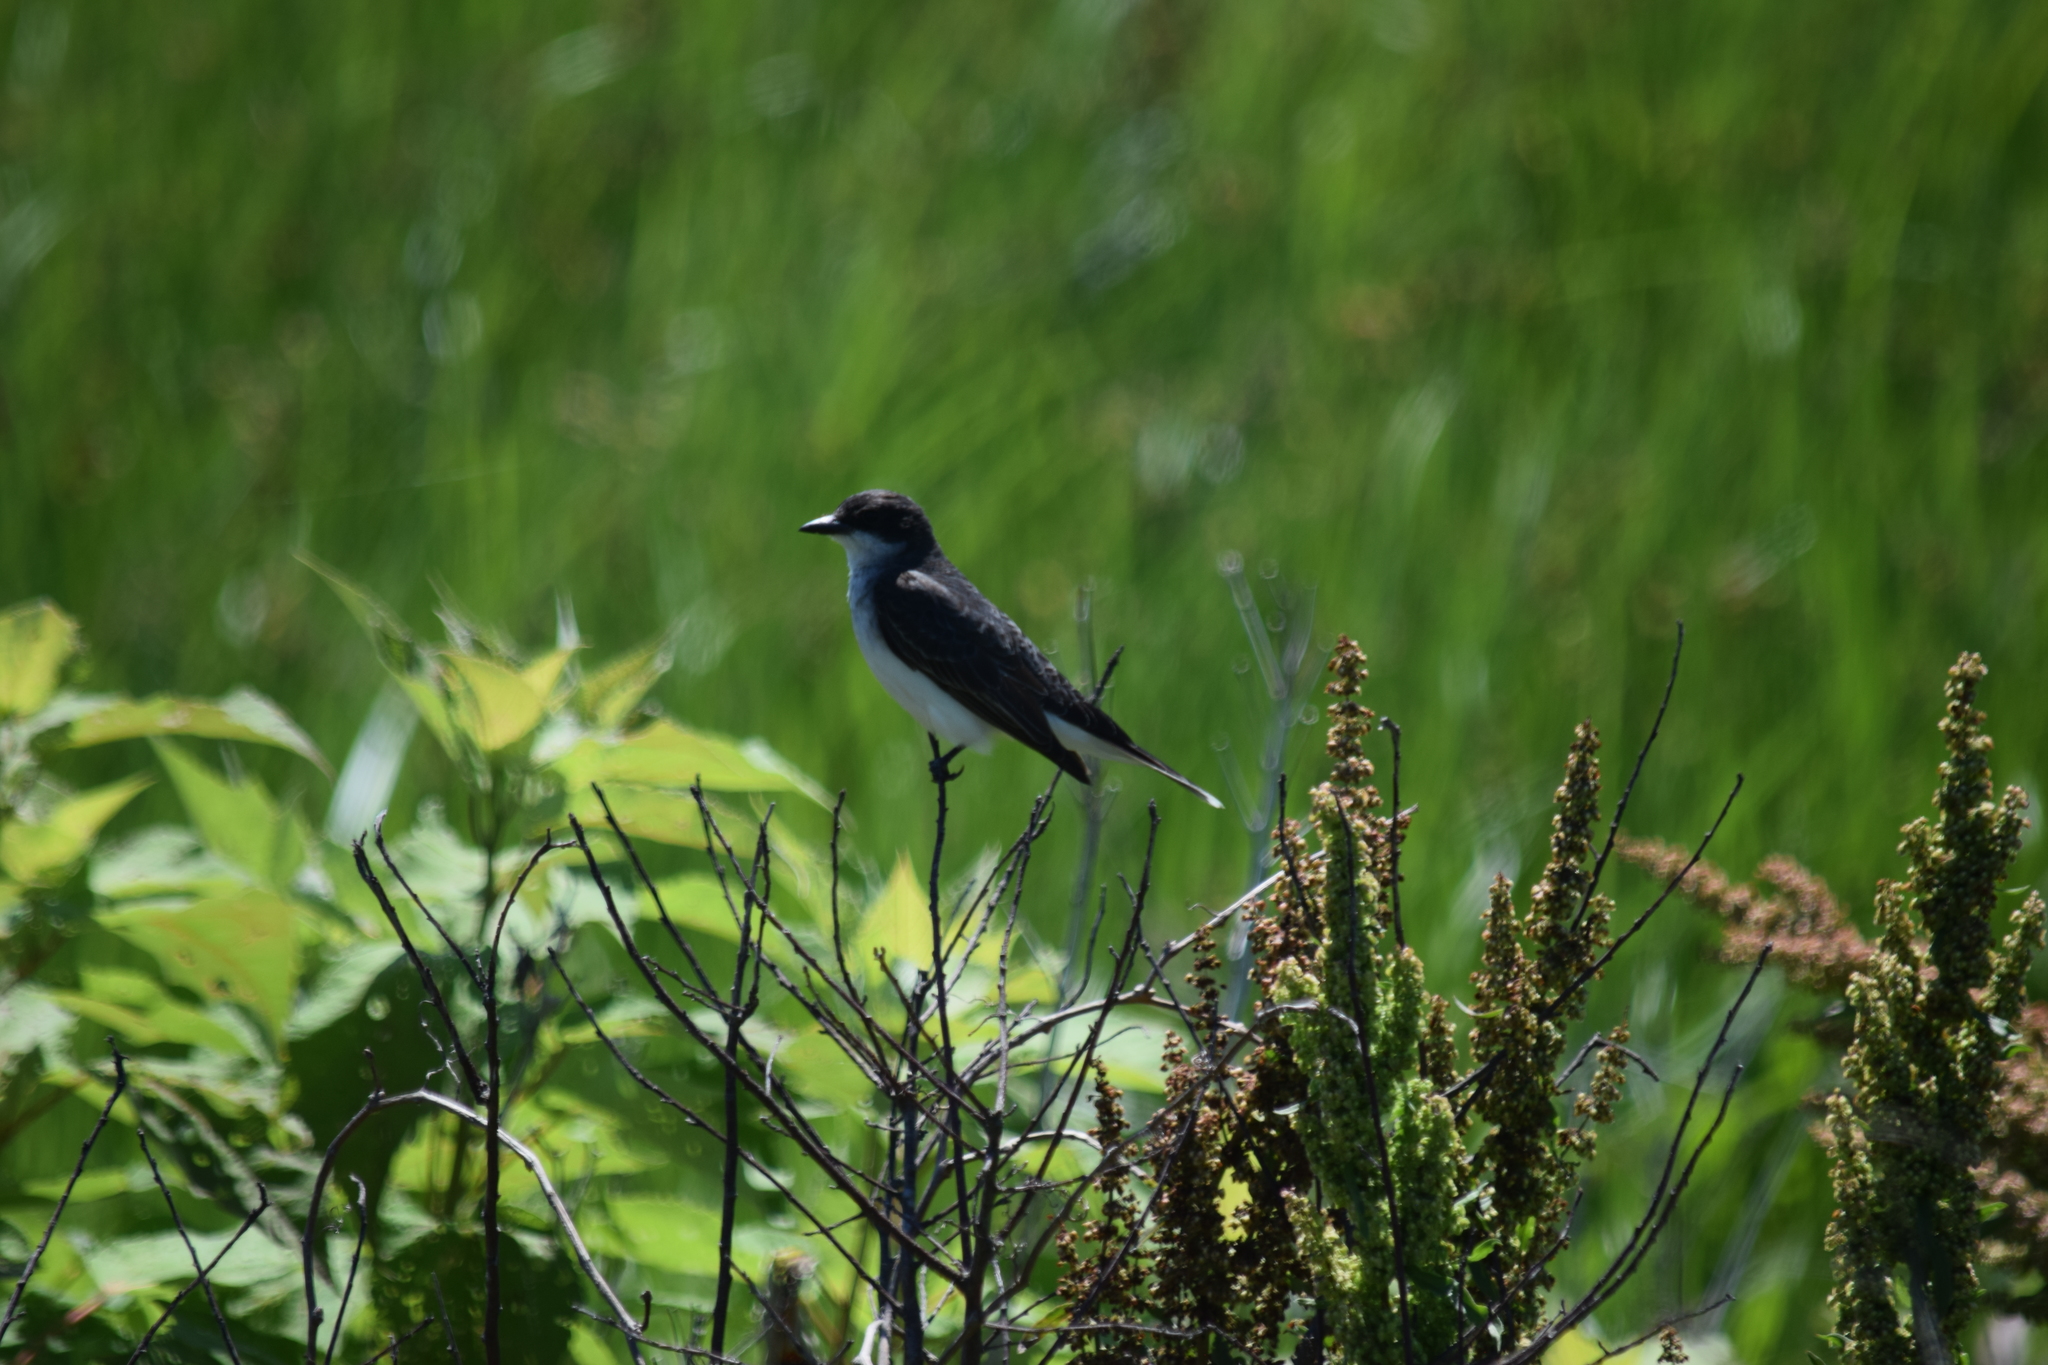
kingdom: Animalia
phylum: Chordata
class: Aves
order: Passeriformes
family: Tyrannidae
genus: Tyrannus
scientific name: Tyrannus tyrannus
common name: Eastern kingbird
